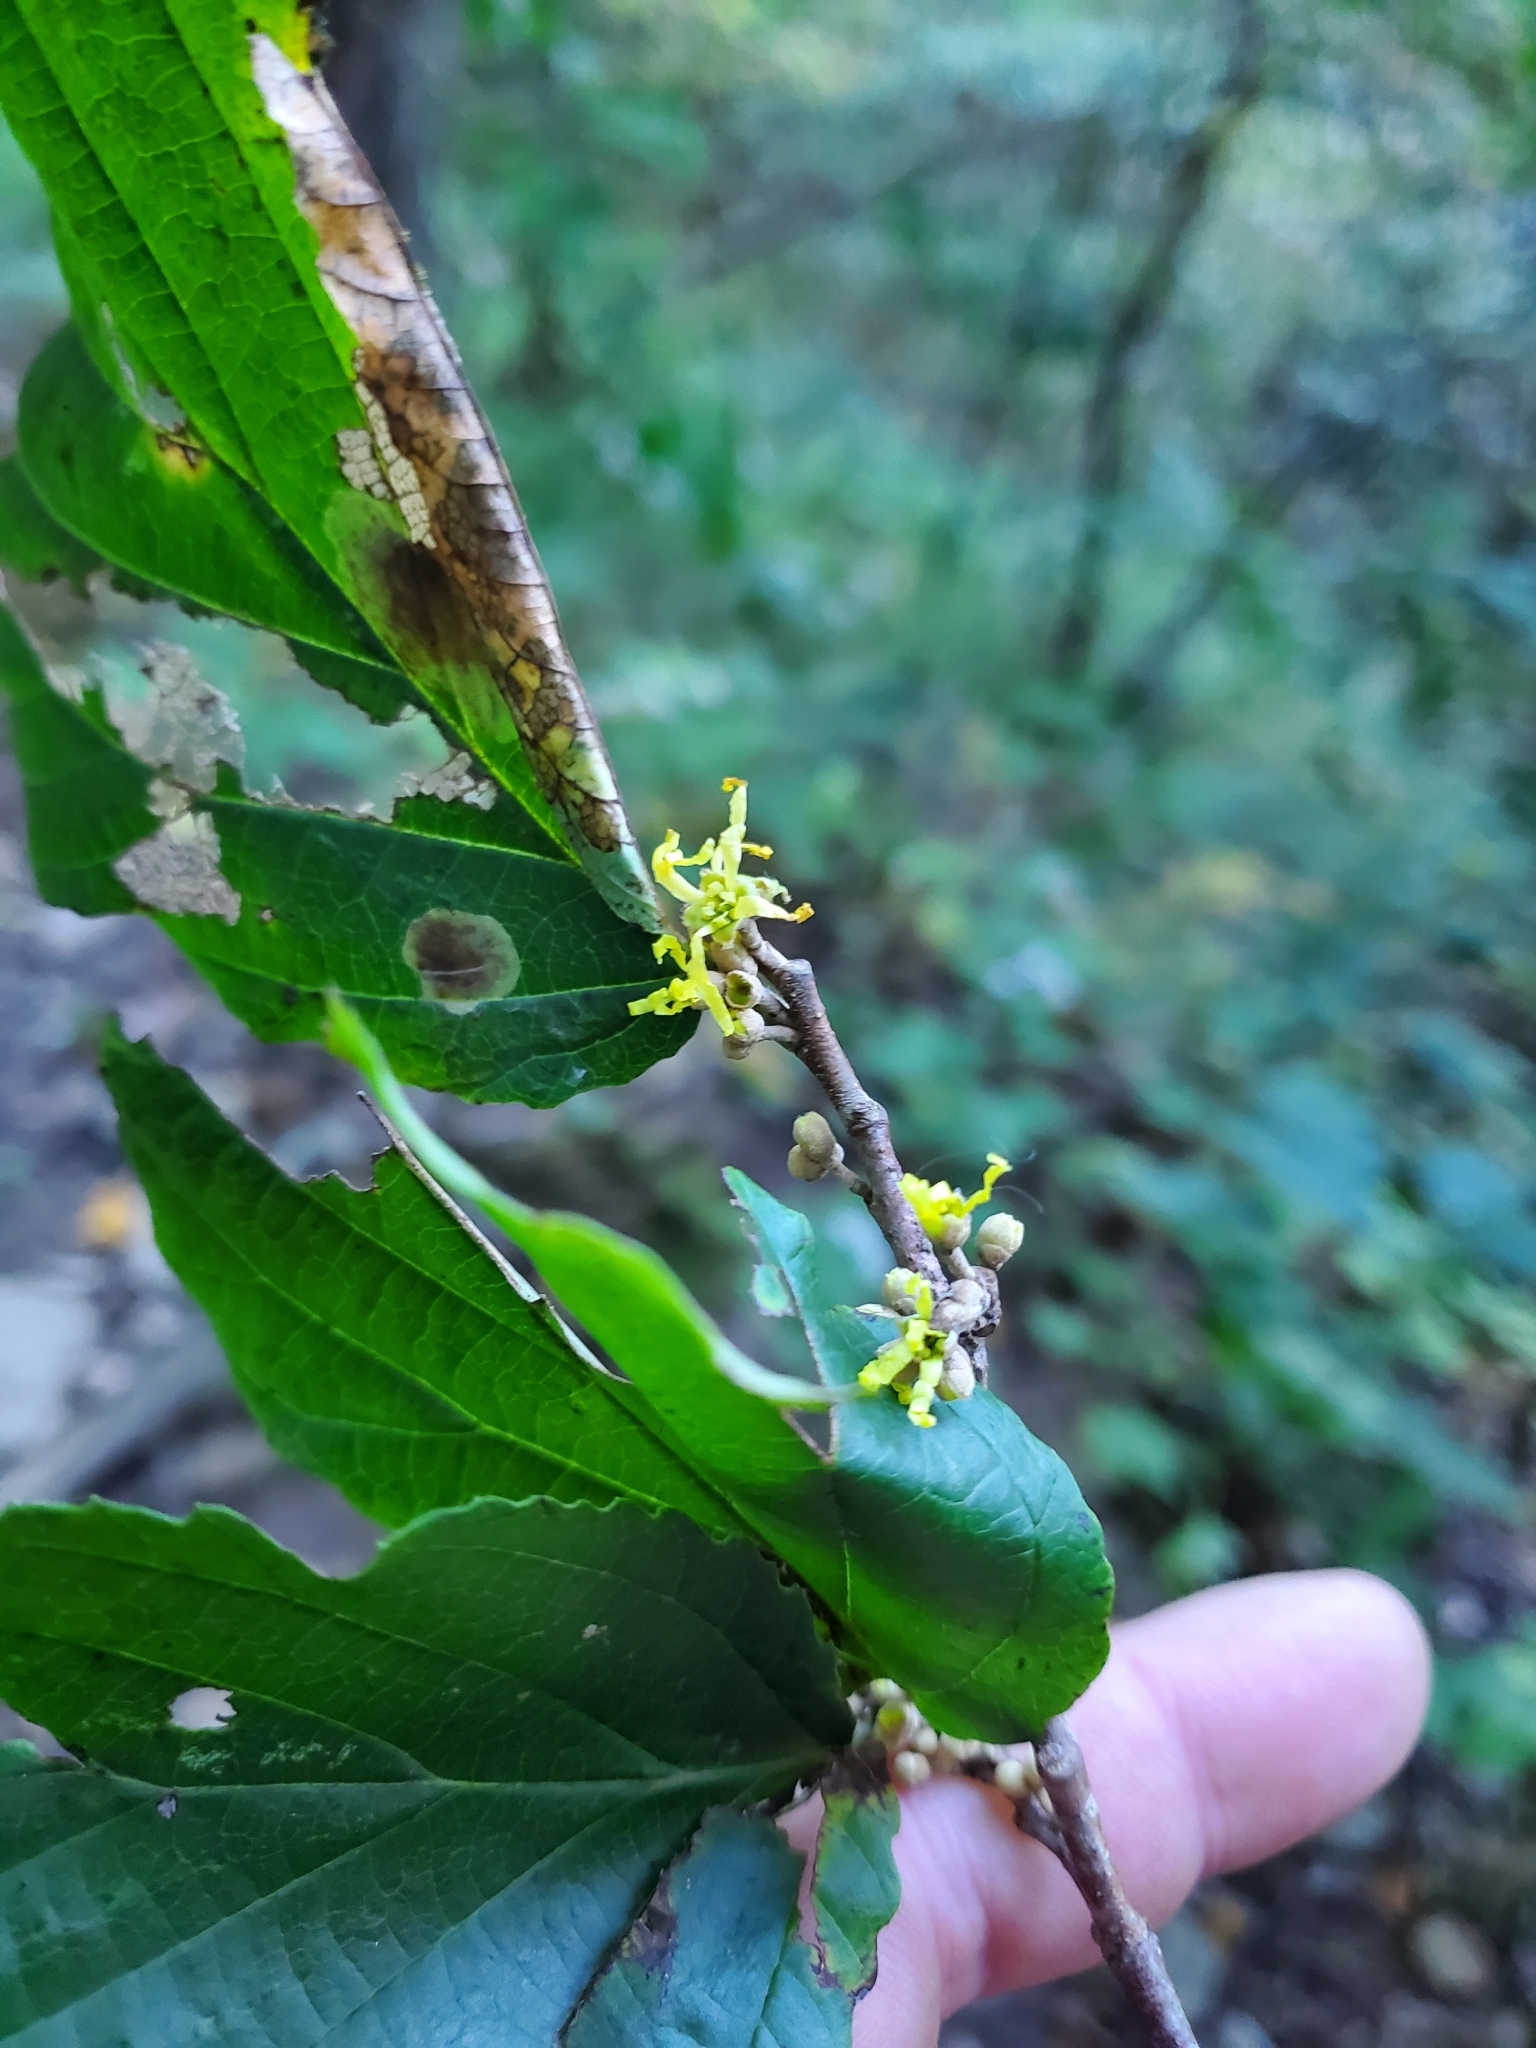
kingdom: Plantae
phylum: Tracheophyta
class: Magnoliopsida
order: Saxifragales
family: Hamamelidaceae
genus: Hamamelis
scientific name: Hamamelis virginiana
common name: Witch-hazel
